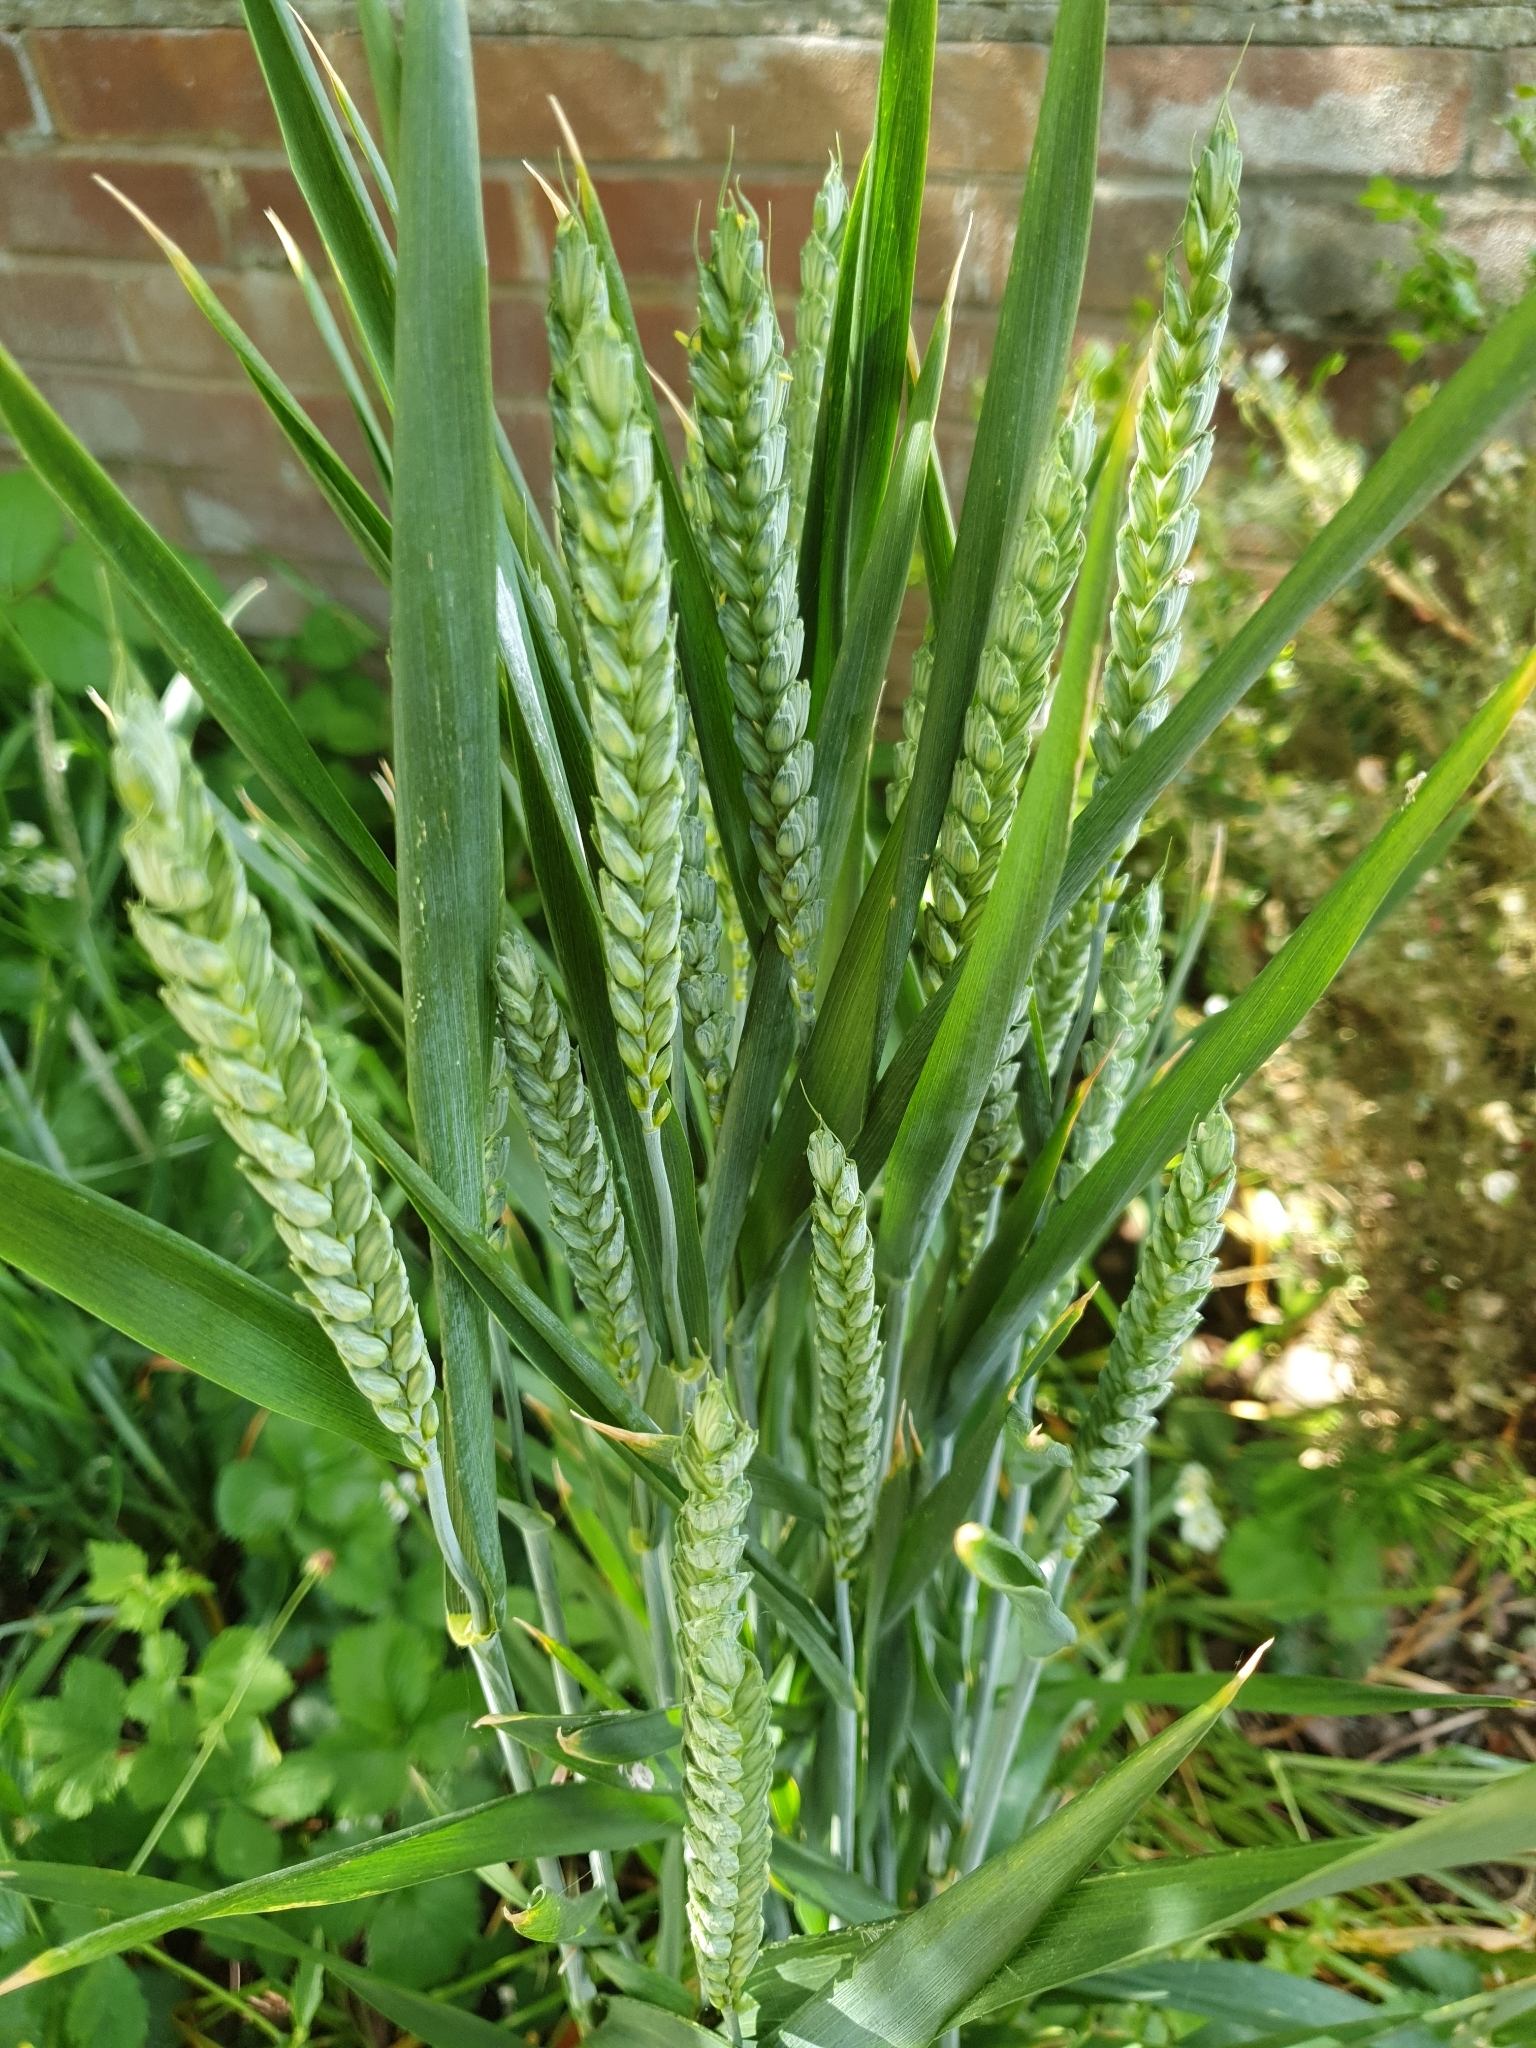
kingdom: Plantae
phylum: Tracheophyta
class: Liliopsida
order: Poales
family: Poaceae
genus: Triticum
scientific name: Triticum aestivum
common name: Common wheat
